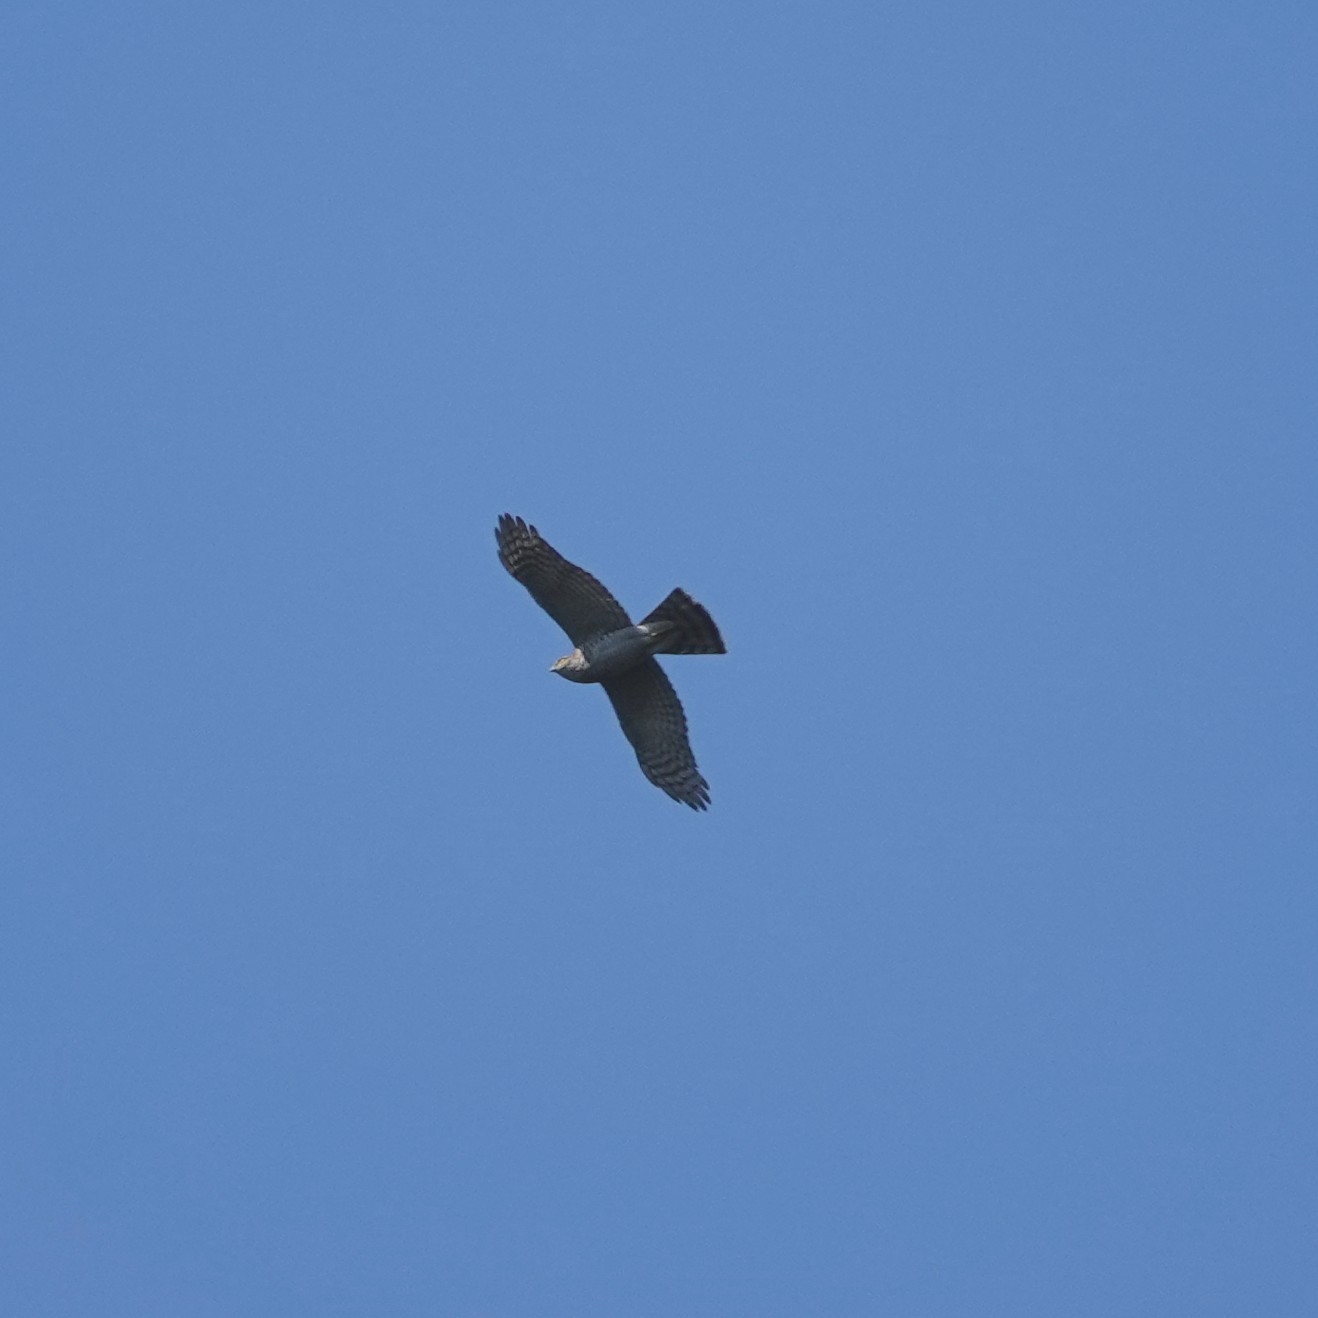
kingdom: Animalia
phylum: Chordata
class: Aves
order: Accipitriformes
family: Accipitridae
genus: Accipiter
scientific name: Accipiter nisus
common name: Eurasian sparrowhawk
